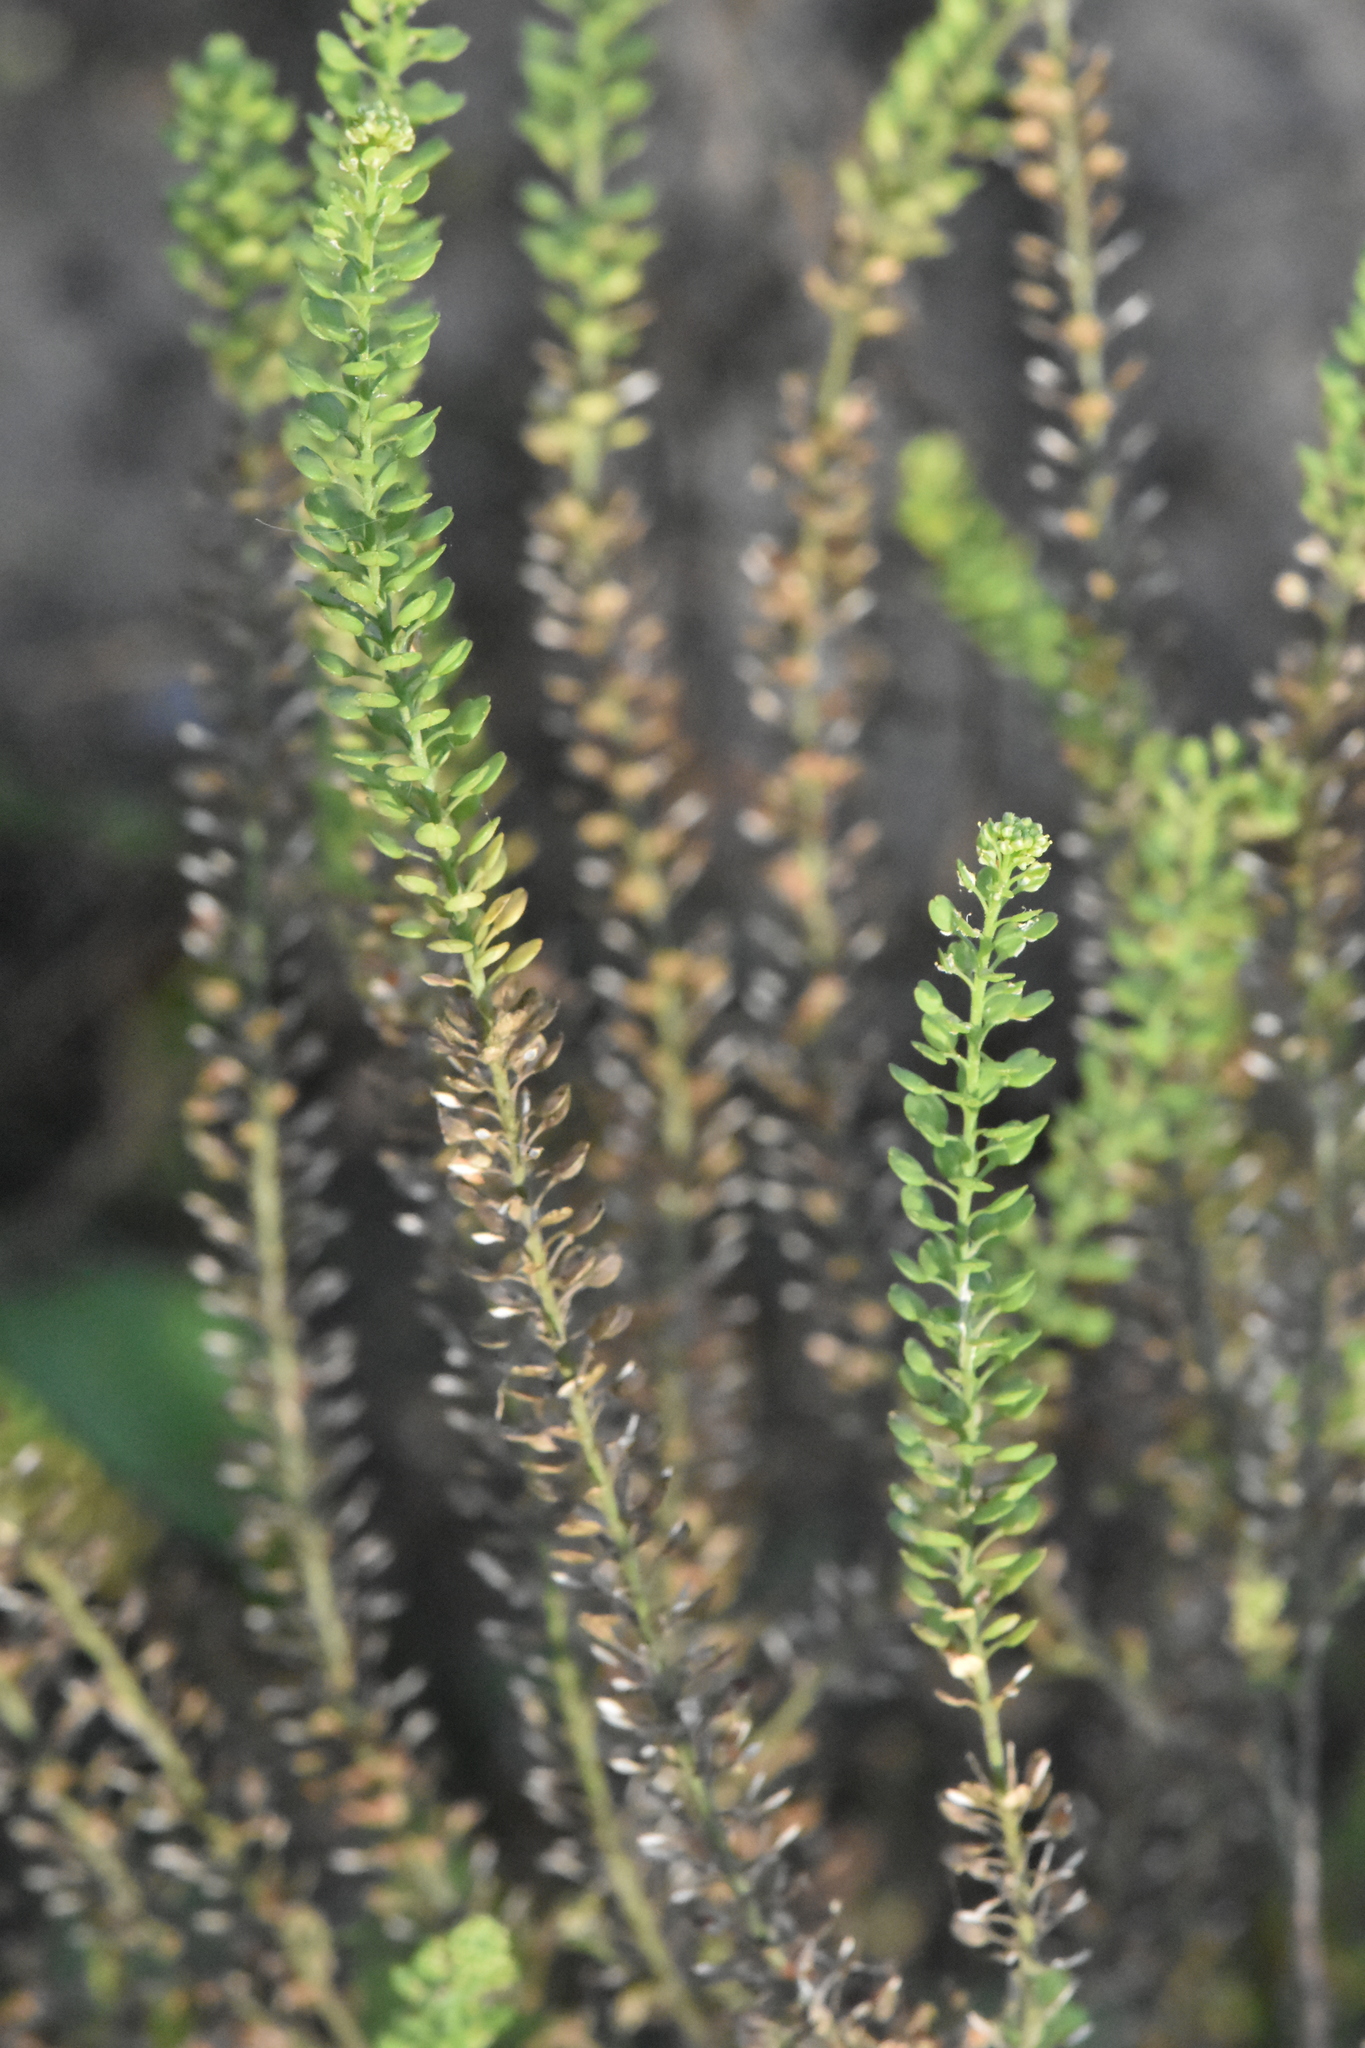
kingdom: Plantae
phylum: Tracheophyta
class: Magnoliopsida
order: Brassicales
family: Brassicaceae
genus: Lepidium
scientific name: Lepidium densiflorum
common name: Miner's pepperwort
